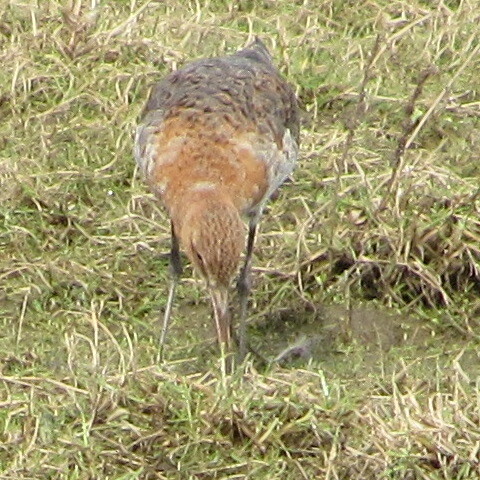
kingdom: Animalia
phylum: Chordata
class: Aves
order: Charadriiformes
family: Scolopacidae
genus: Limosa
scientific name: Limosa limosa
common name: Black-tailed godwit
